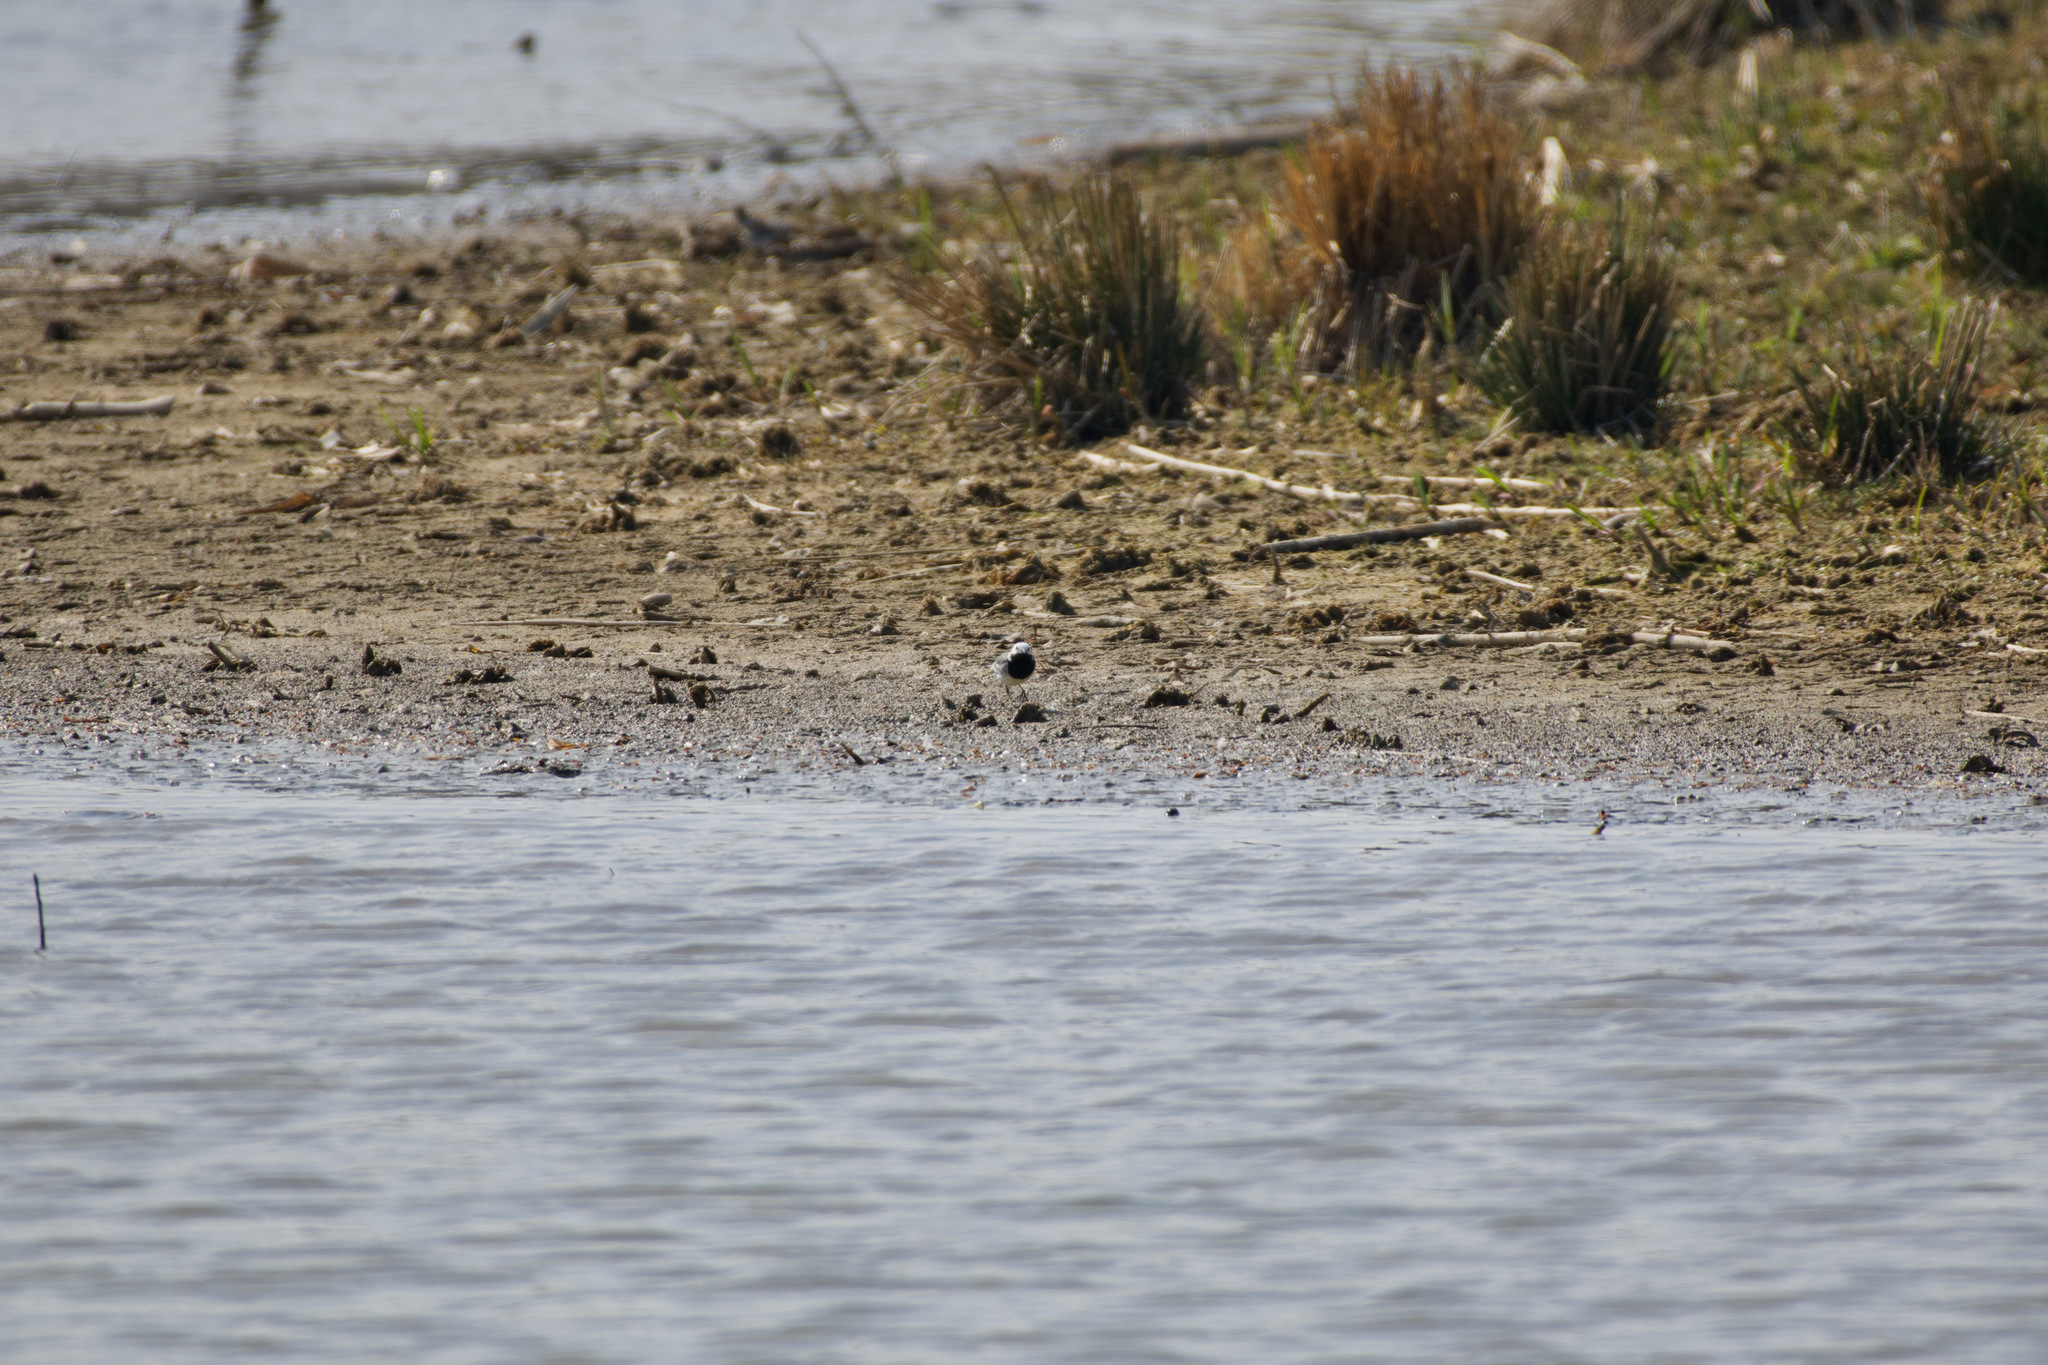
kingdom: Animalia
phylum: Chordata
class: Aves
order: Passeriformes
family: Motacillidae
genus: Motacilla
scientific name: Motacilla alba
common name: White wagtail
